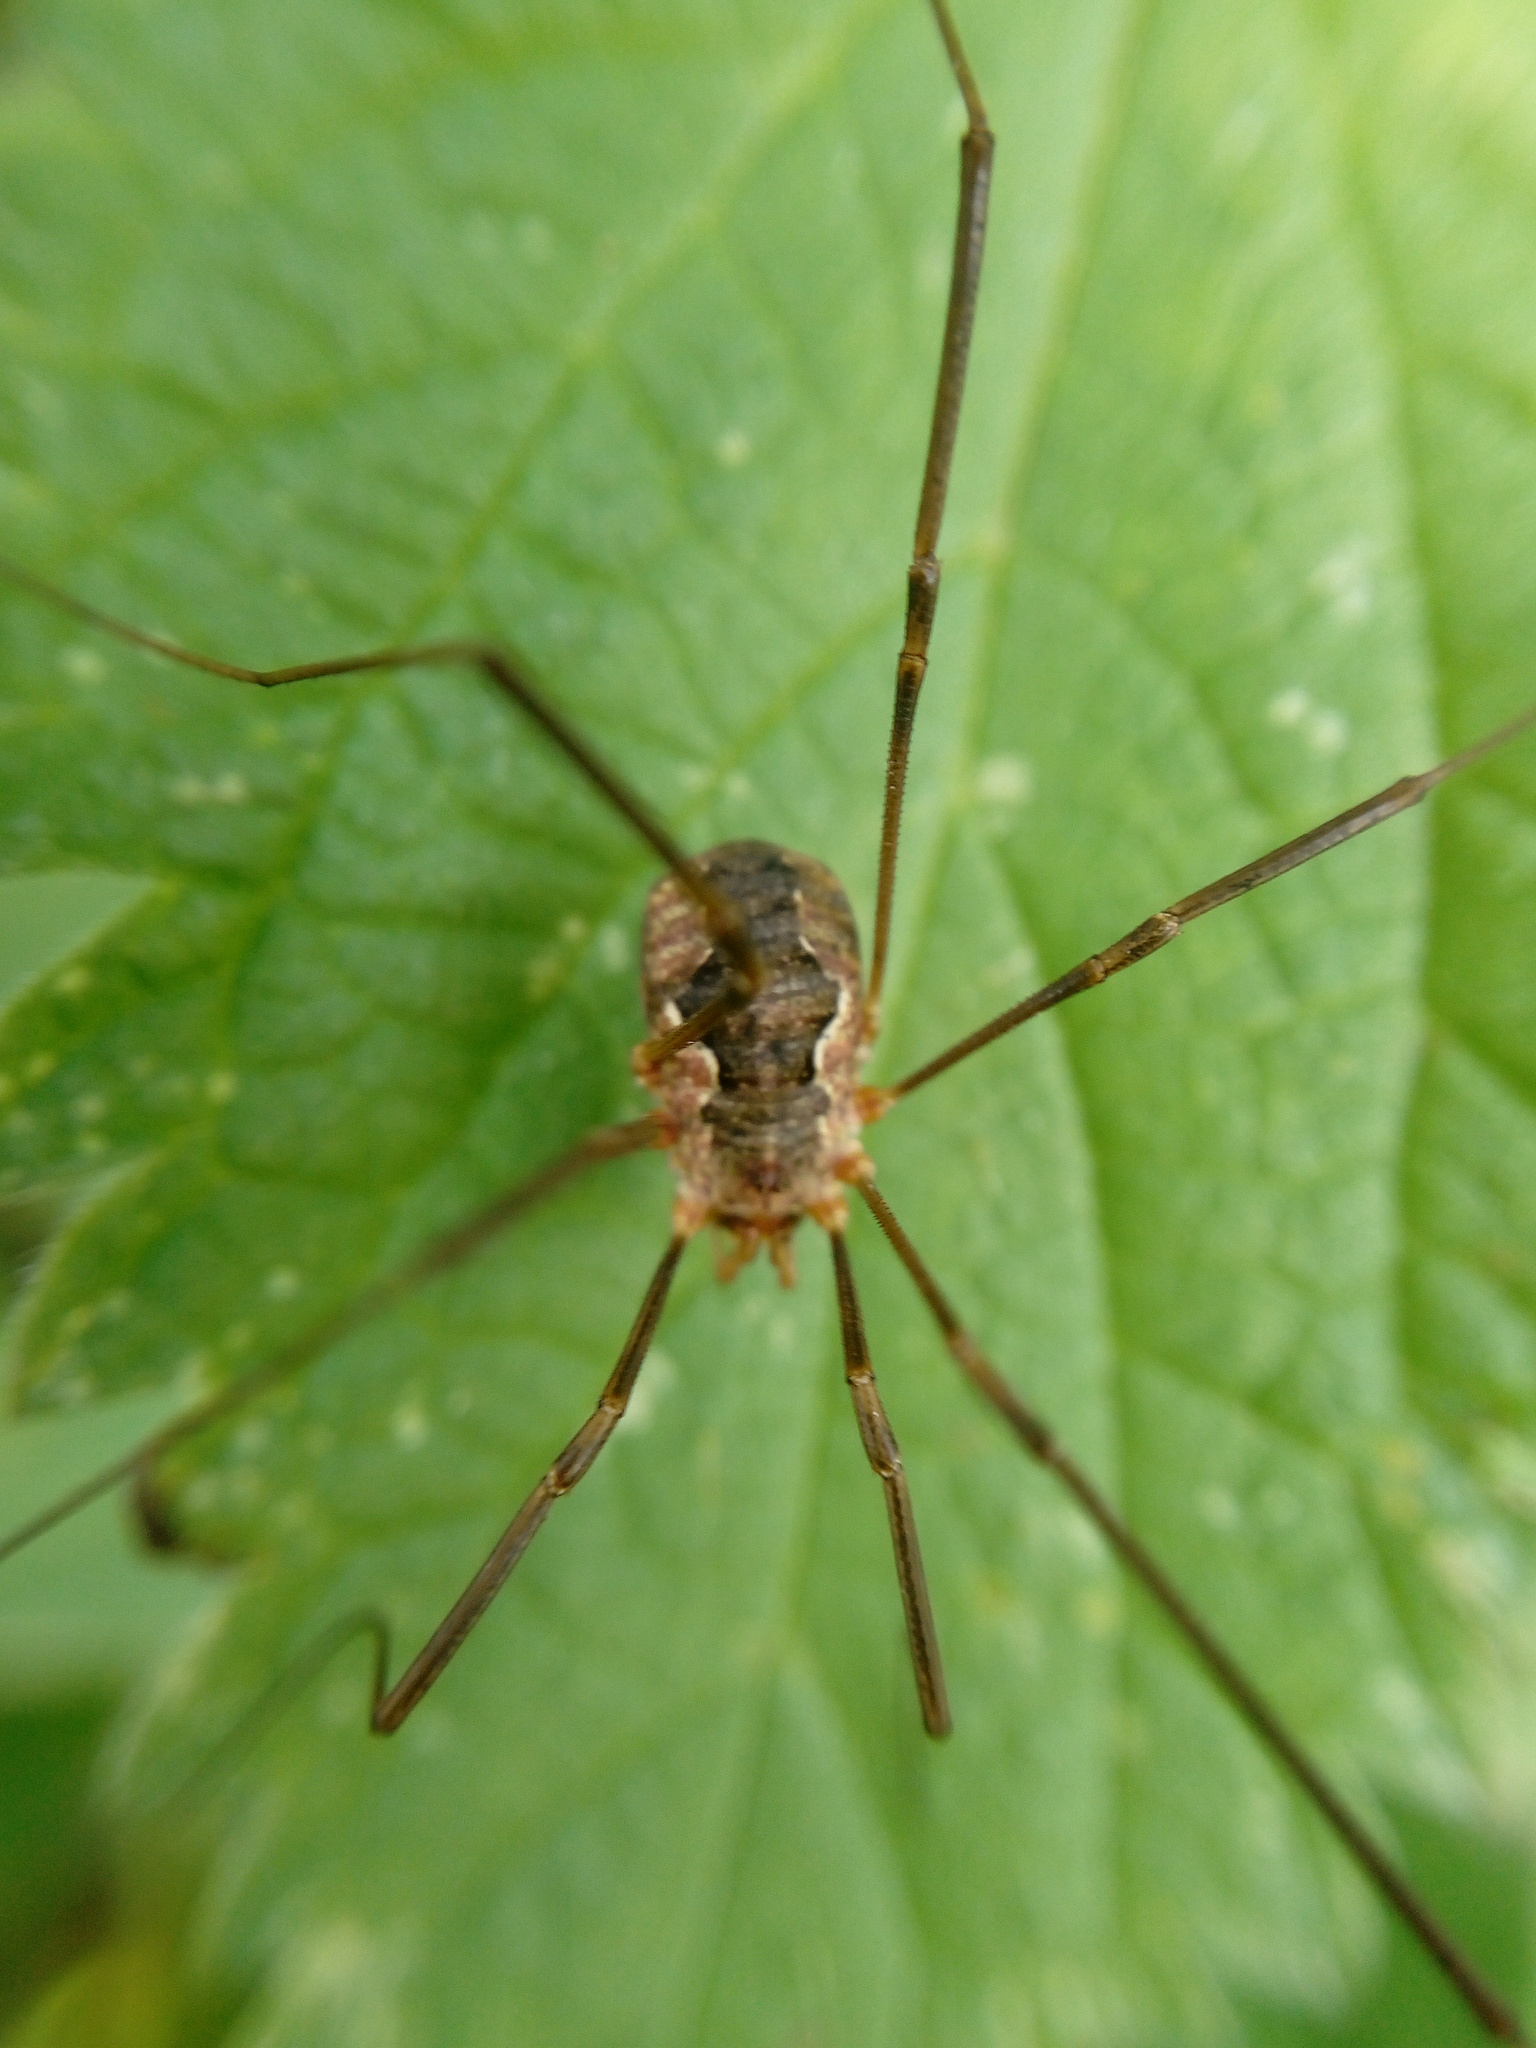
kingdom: Animalia
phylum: Arthropoda
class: Arachnida
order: Opiliones
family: Phalangiidae
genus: Phalangium
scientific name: Phalangium opilio
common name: Daddy longleg
